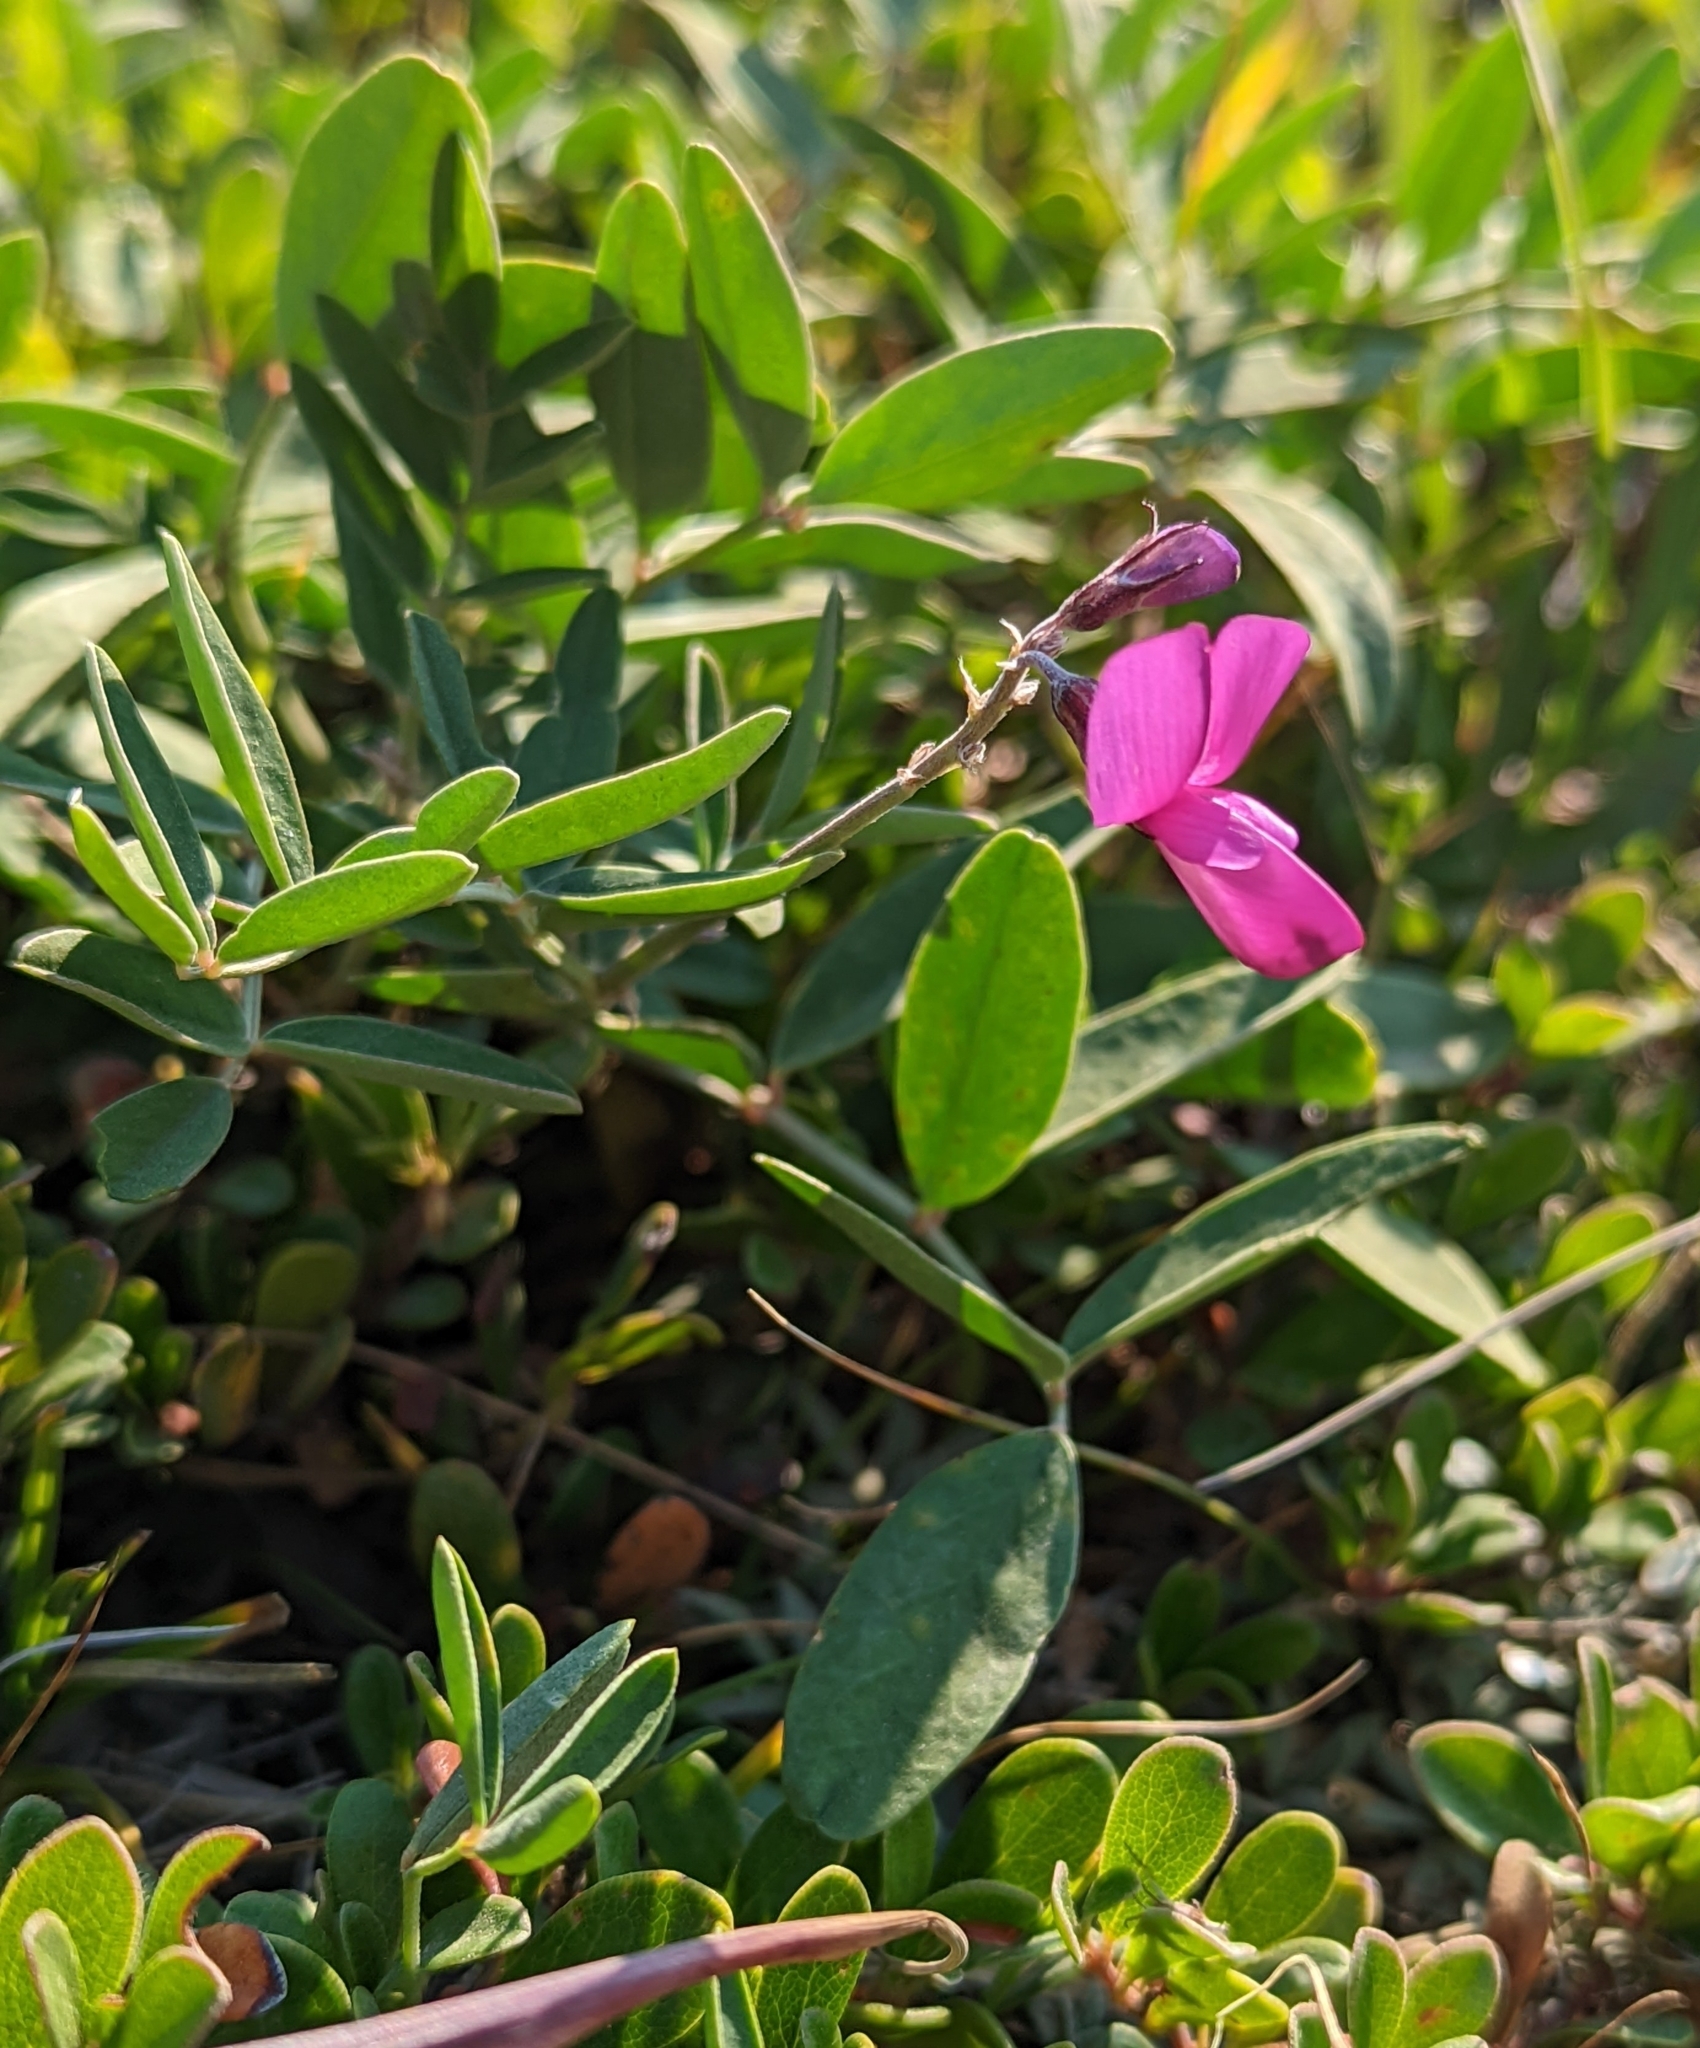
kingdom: Plantae
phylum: Tracheophyta
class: Magnoliopsida
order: Fabales
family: Fabaceae
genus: Hedysarum
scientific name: Hedysarum boreale
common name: Northern sweet-vetch
